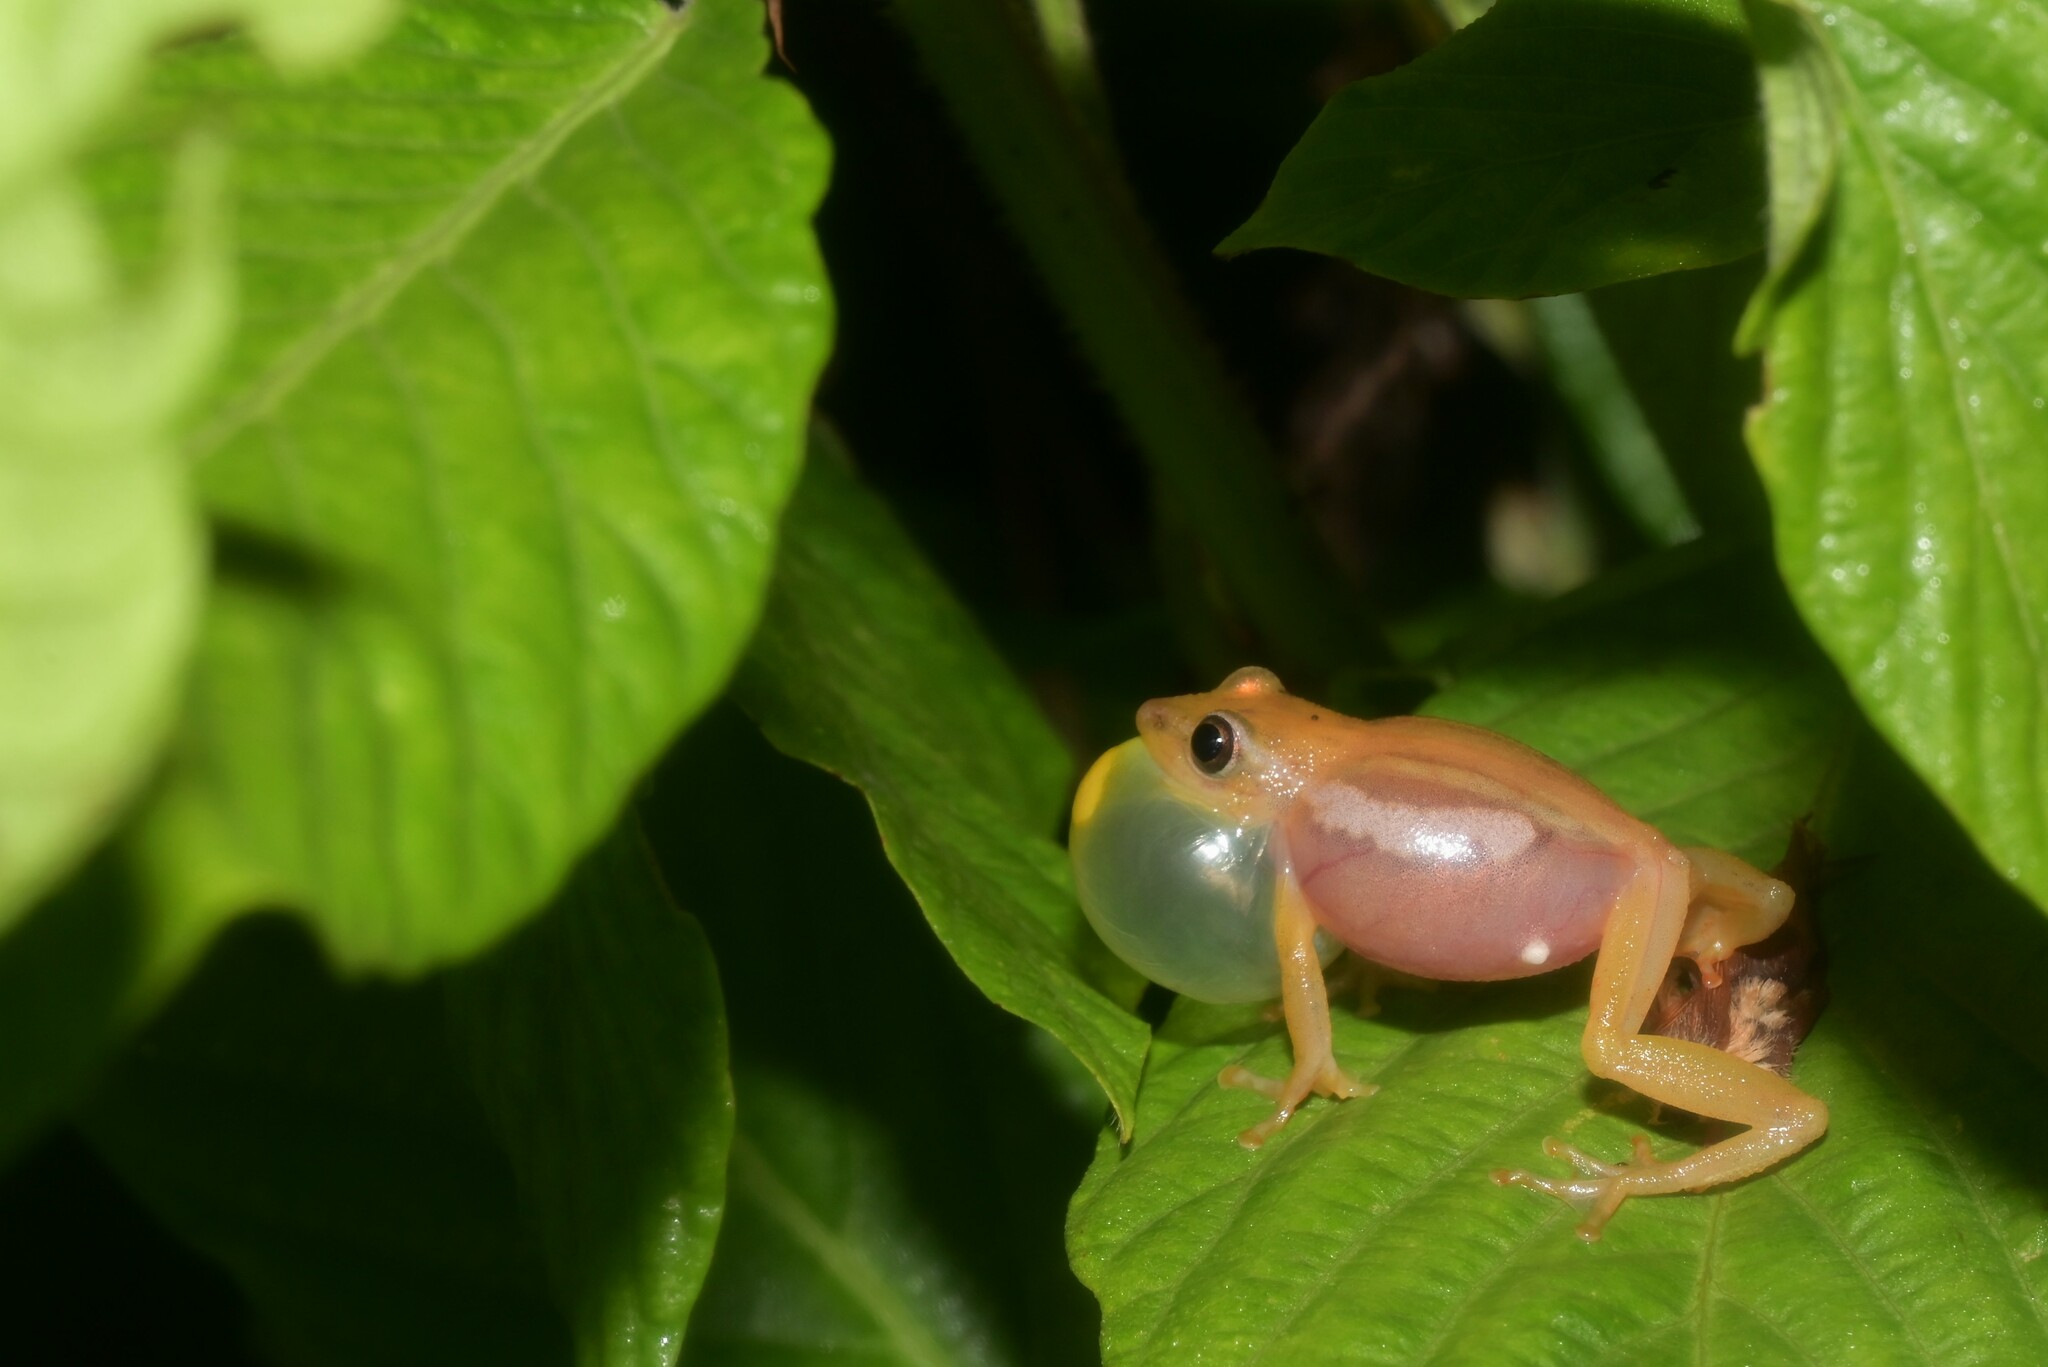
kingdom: Animalia
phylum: Chordata
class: Amphibia
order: Anura
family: Hyperoliidae
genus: Hyperolius
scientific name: Hyperolius mitchelli
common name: Mitchell's reed frog
